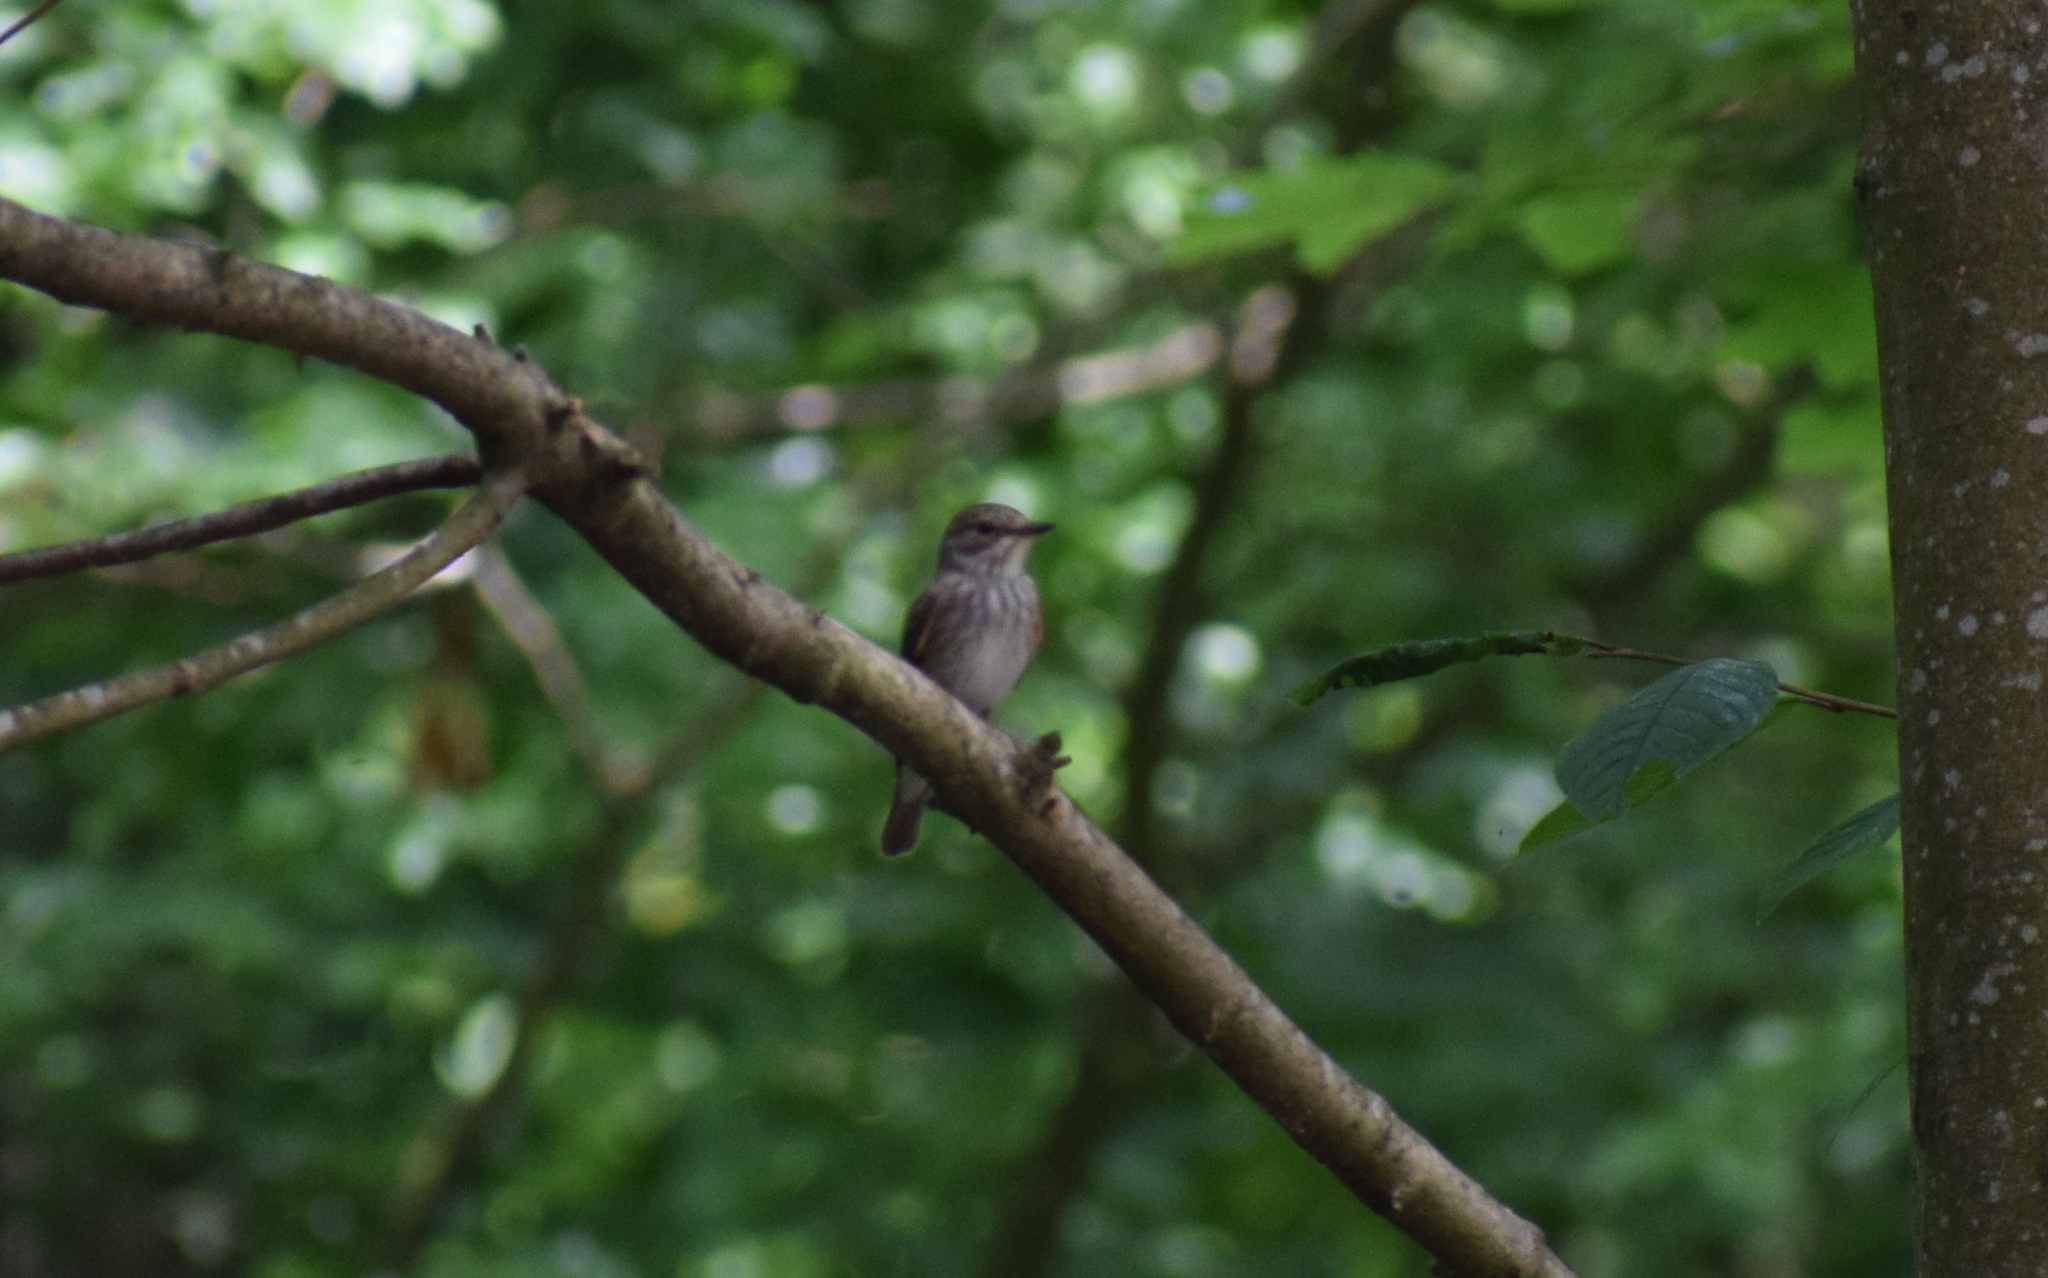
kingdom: Animalia
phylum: Chordata
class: Aves
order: Passeriformes
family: Muscicapidae
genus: Muscicapa
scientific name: Muscicapa striata
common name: Spotted flycatcher
